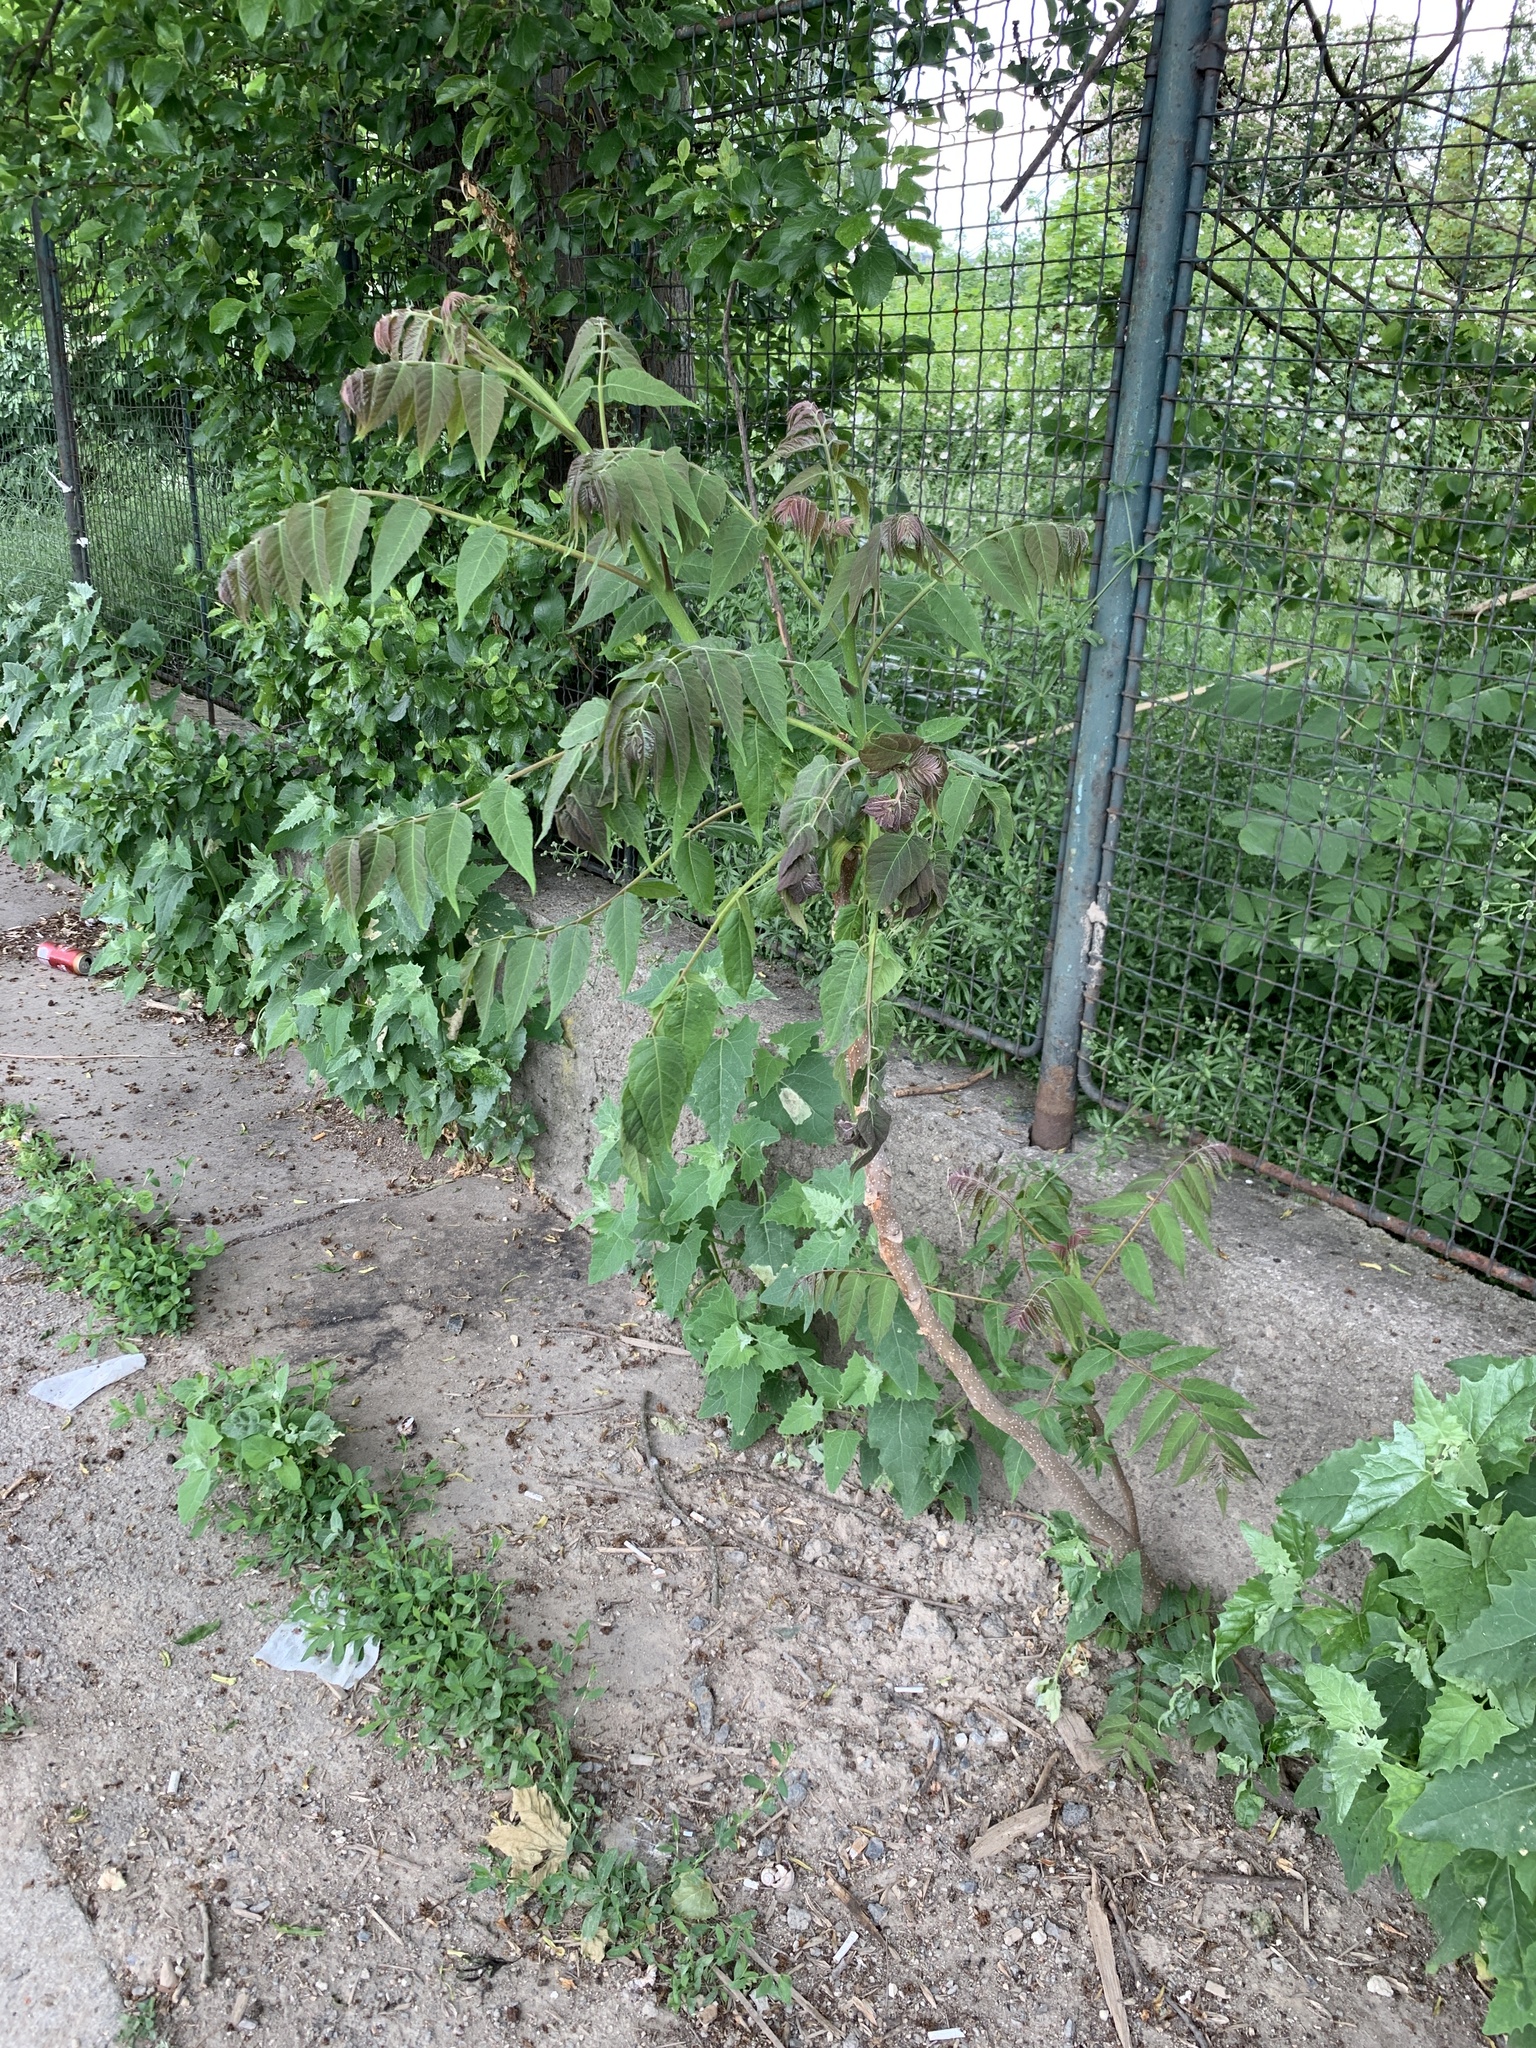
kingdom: Plantae
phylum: Tracheophyta
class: Magnoliopsida
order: Sapindales
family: Simaroubaceae
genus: Ailanthus
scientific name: Ailanthus altissima
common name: Tree-of-heaven
